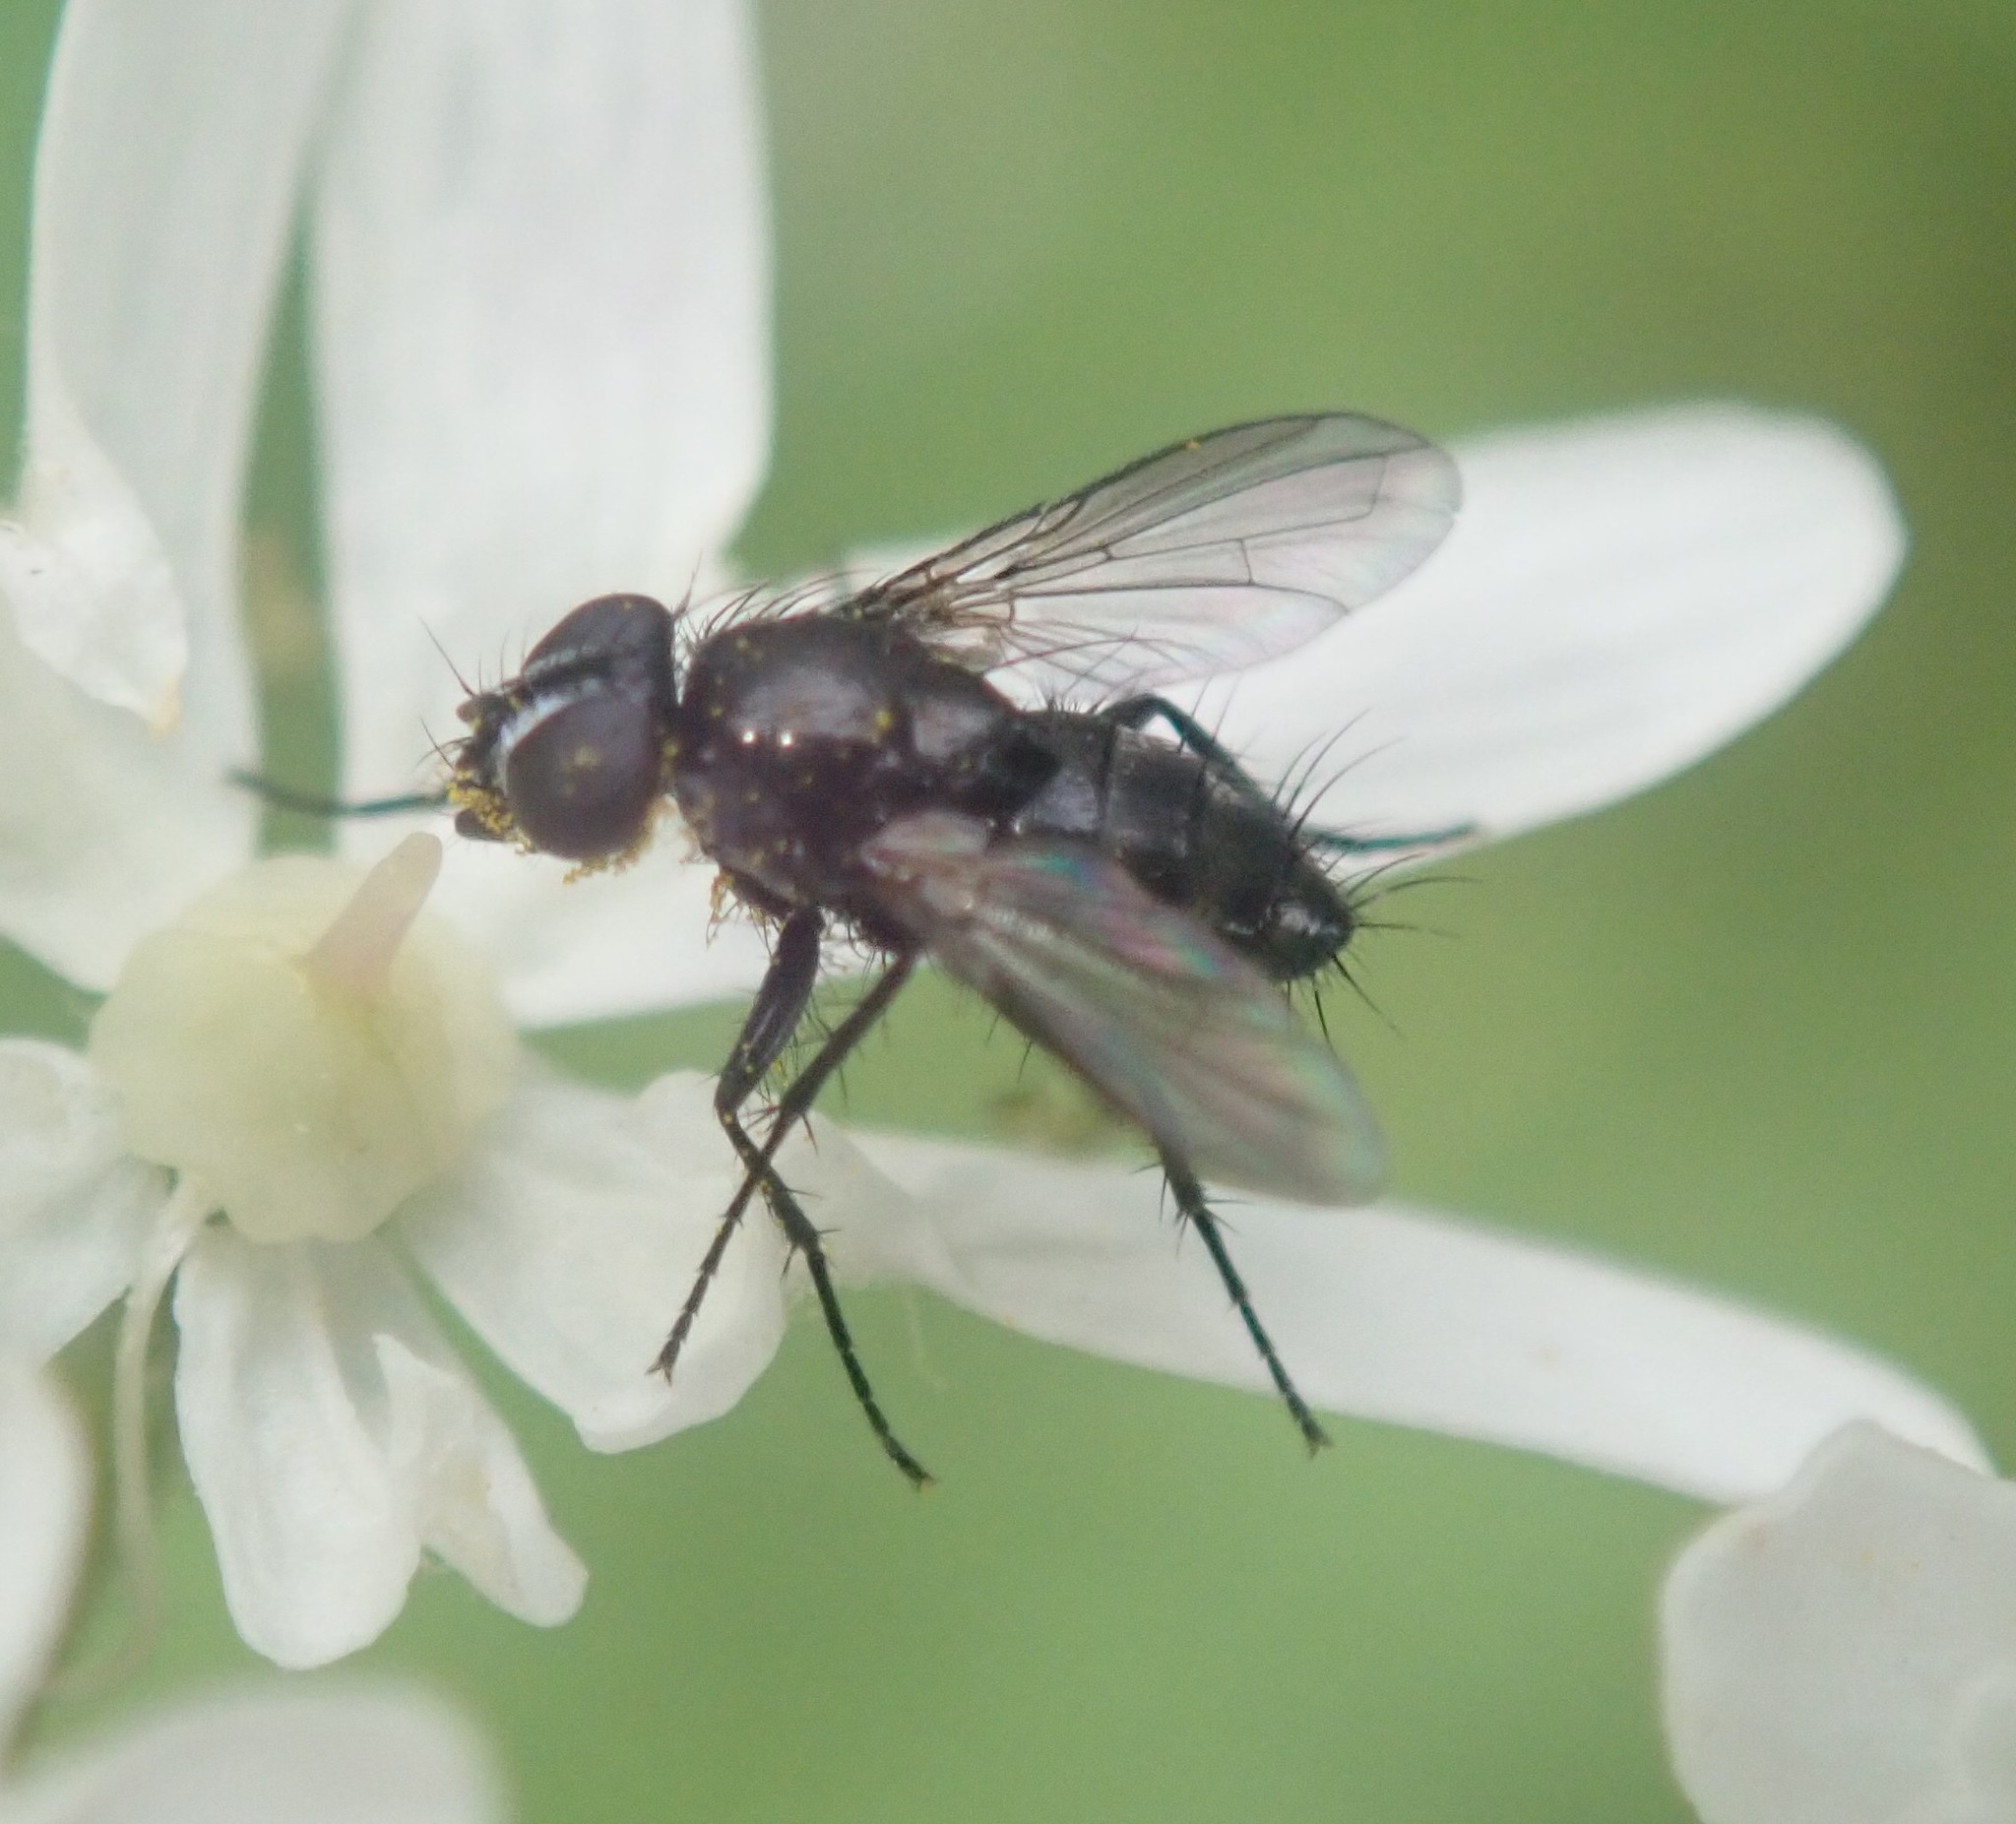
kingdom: Animalia
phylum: Arthropoda
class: Insecta
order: Diptera
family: Calliphoridae
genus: Rhinophora
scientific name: Rhinophora lepida
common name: Pouting woodlouse-fly
